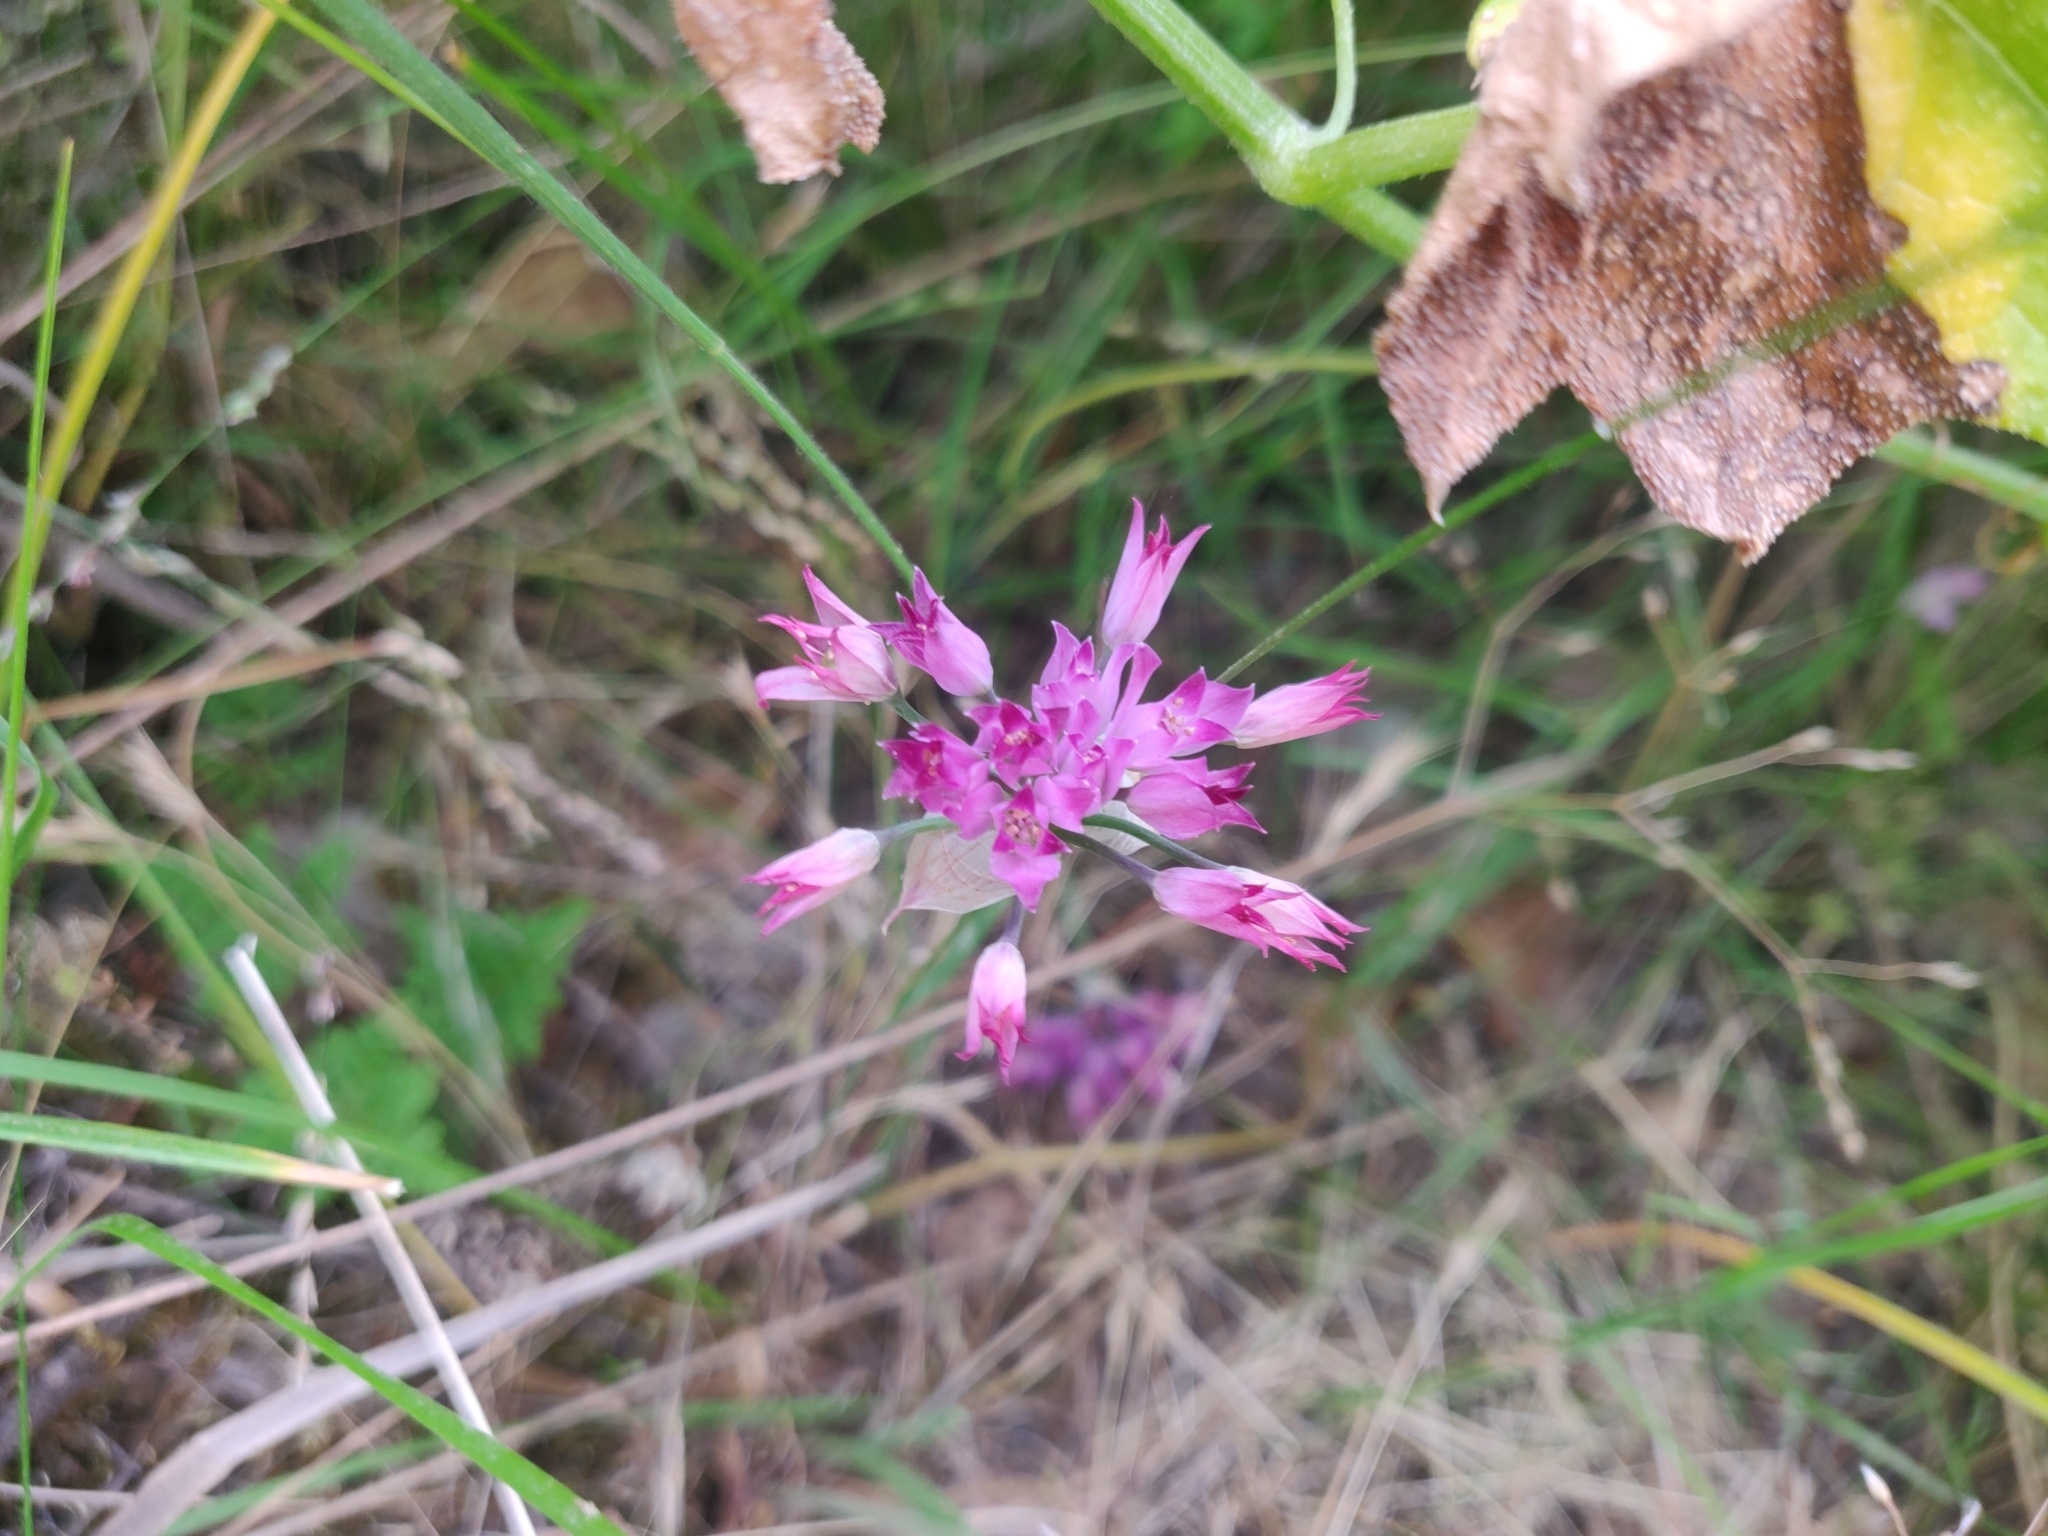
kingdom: Plantae
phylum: Tracheophyta
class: Liliopsida
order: Asparagales
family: Amaryllidaceae
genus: Allium
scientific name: Allium peninsulare
